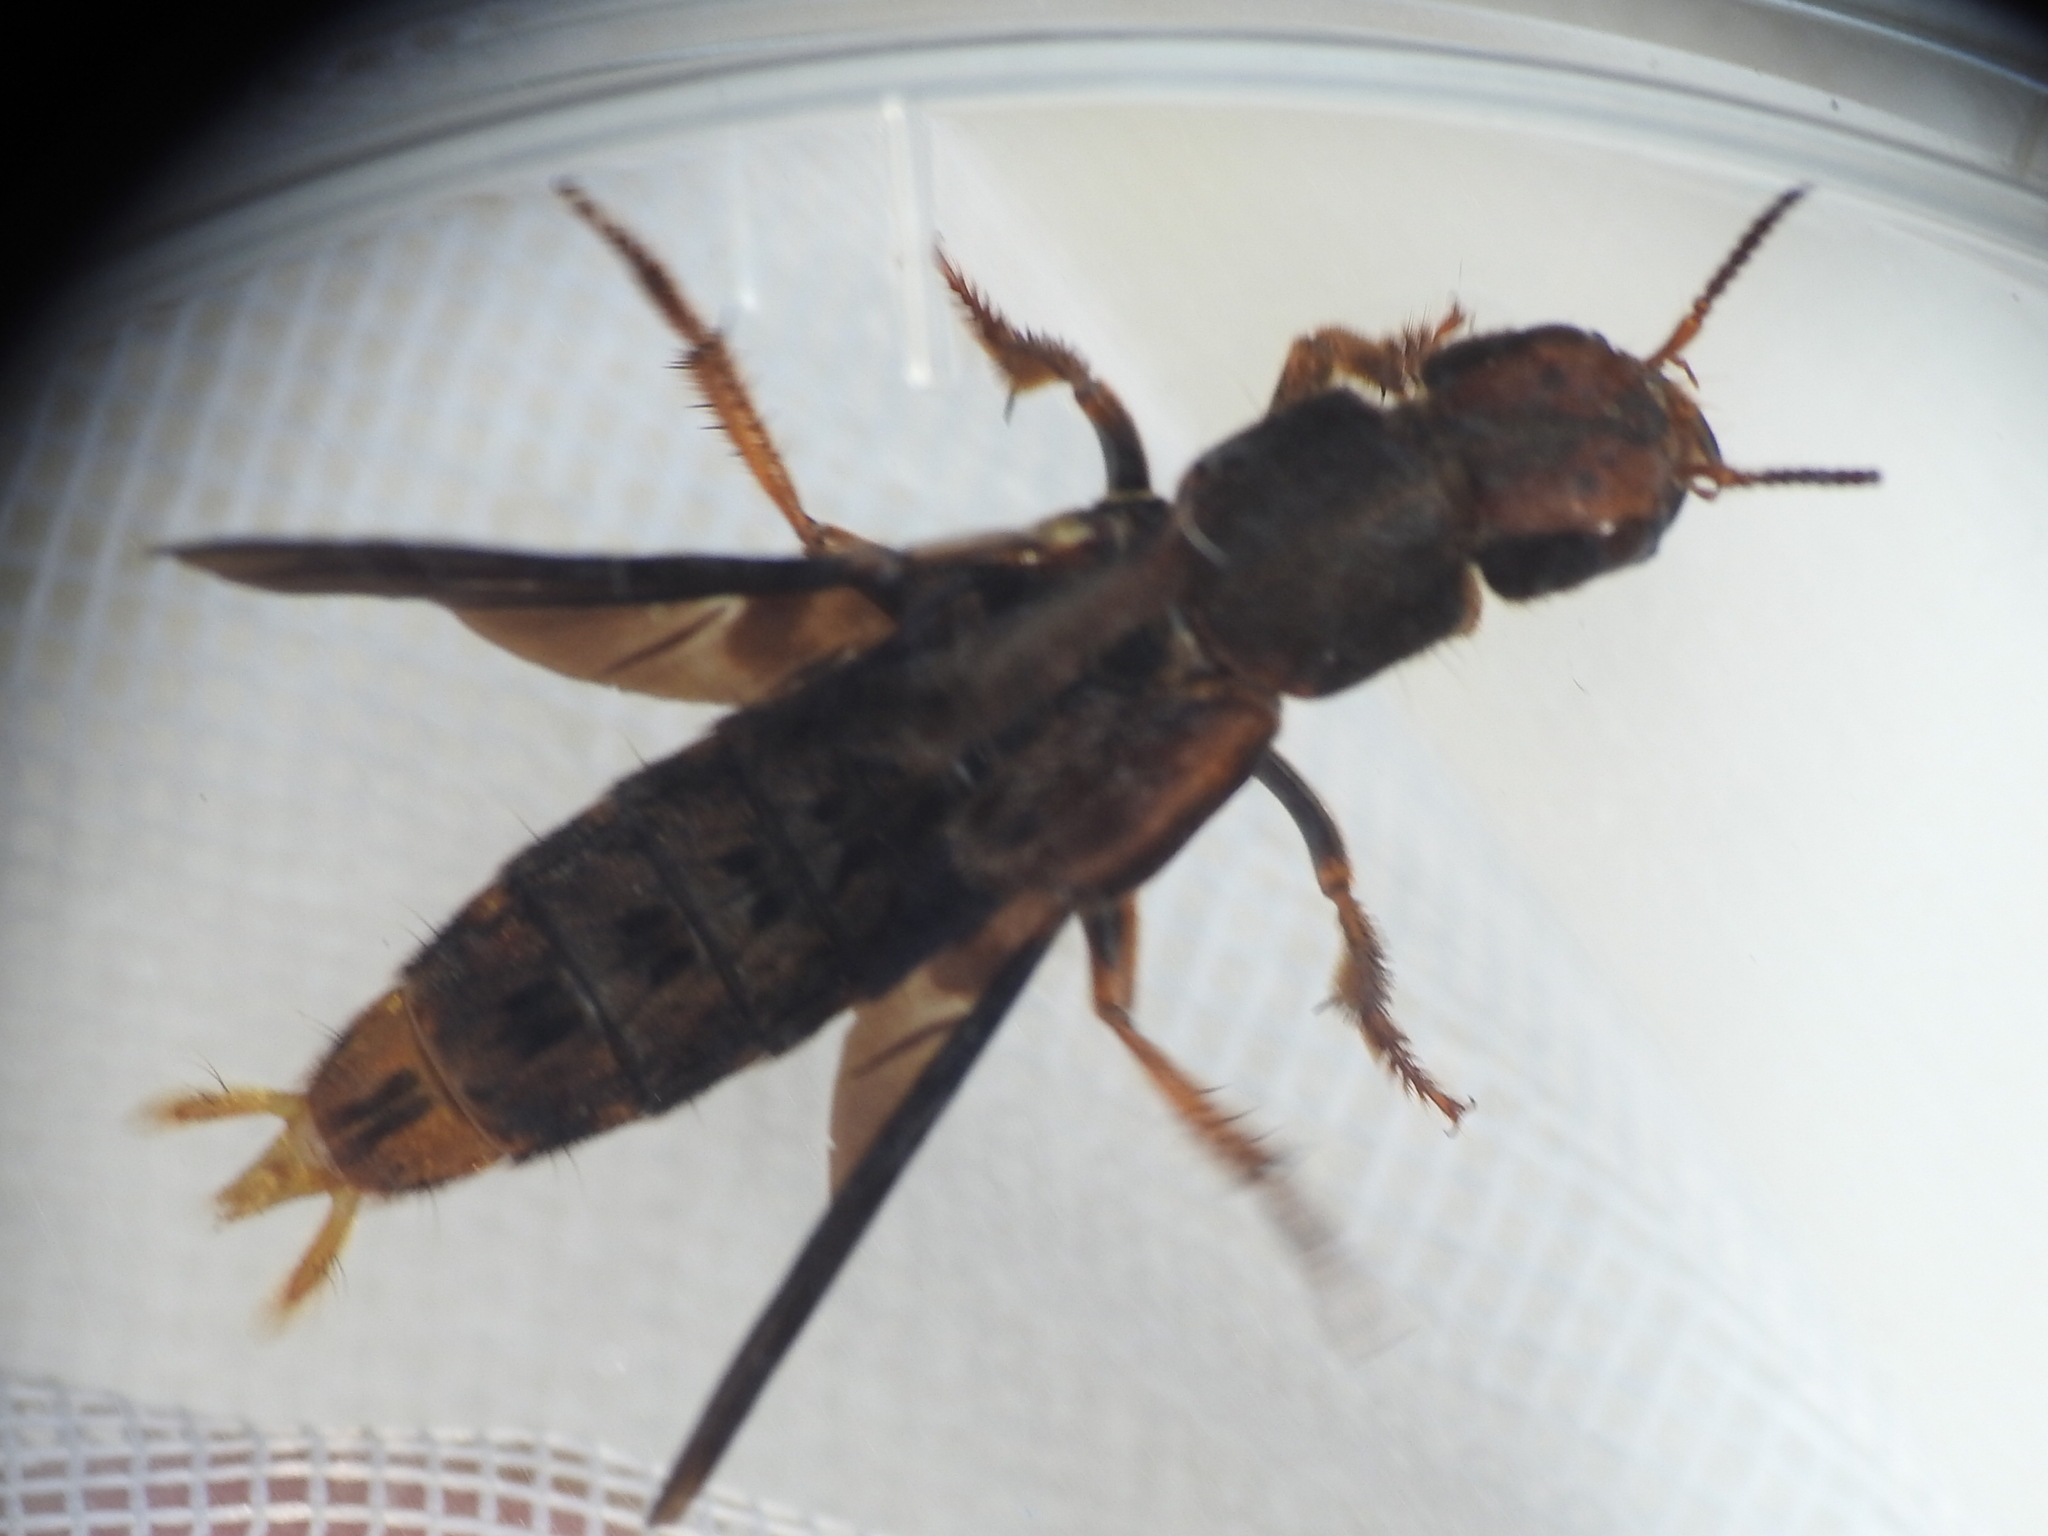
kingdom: Animalia
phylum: Arthropoda
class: Insecta
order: Coleoptera
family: Staphylinidae
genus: Platydracus
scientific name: Platydracus maculosus
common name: Brown rove beetle
